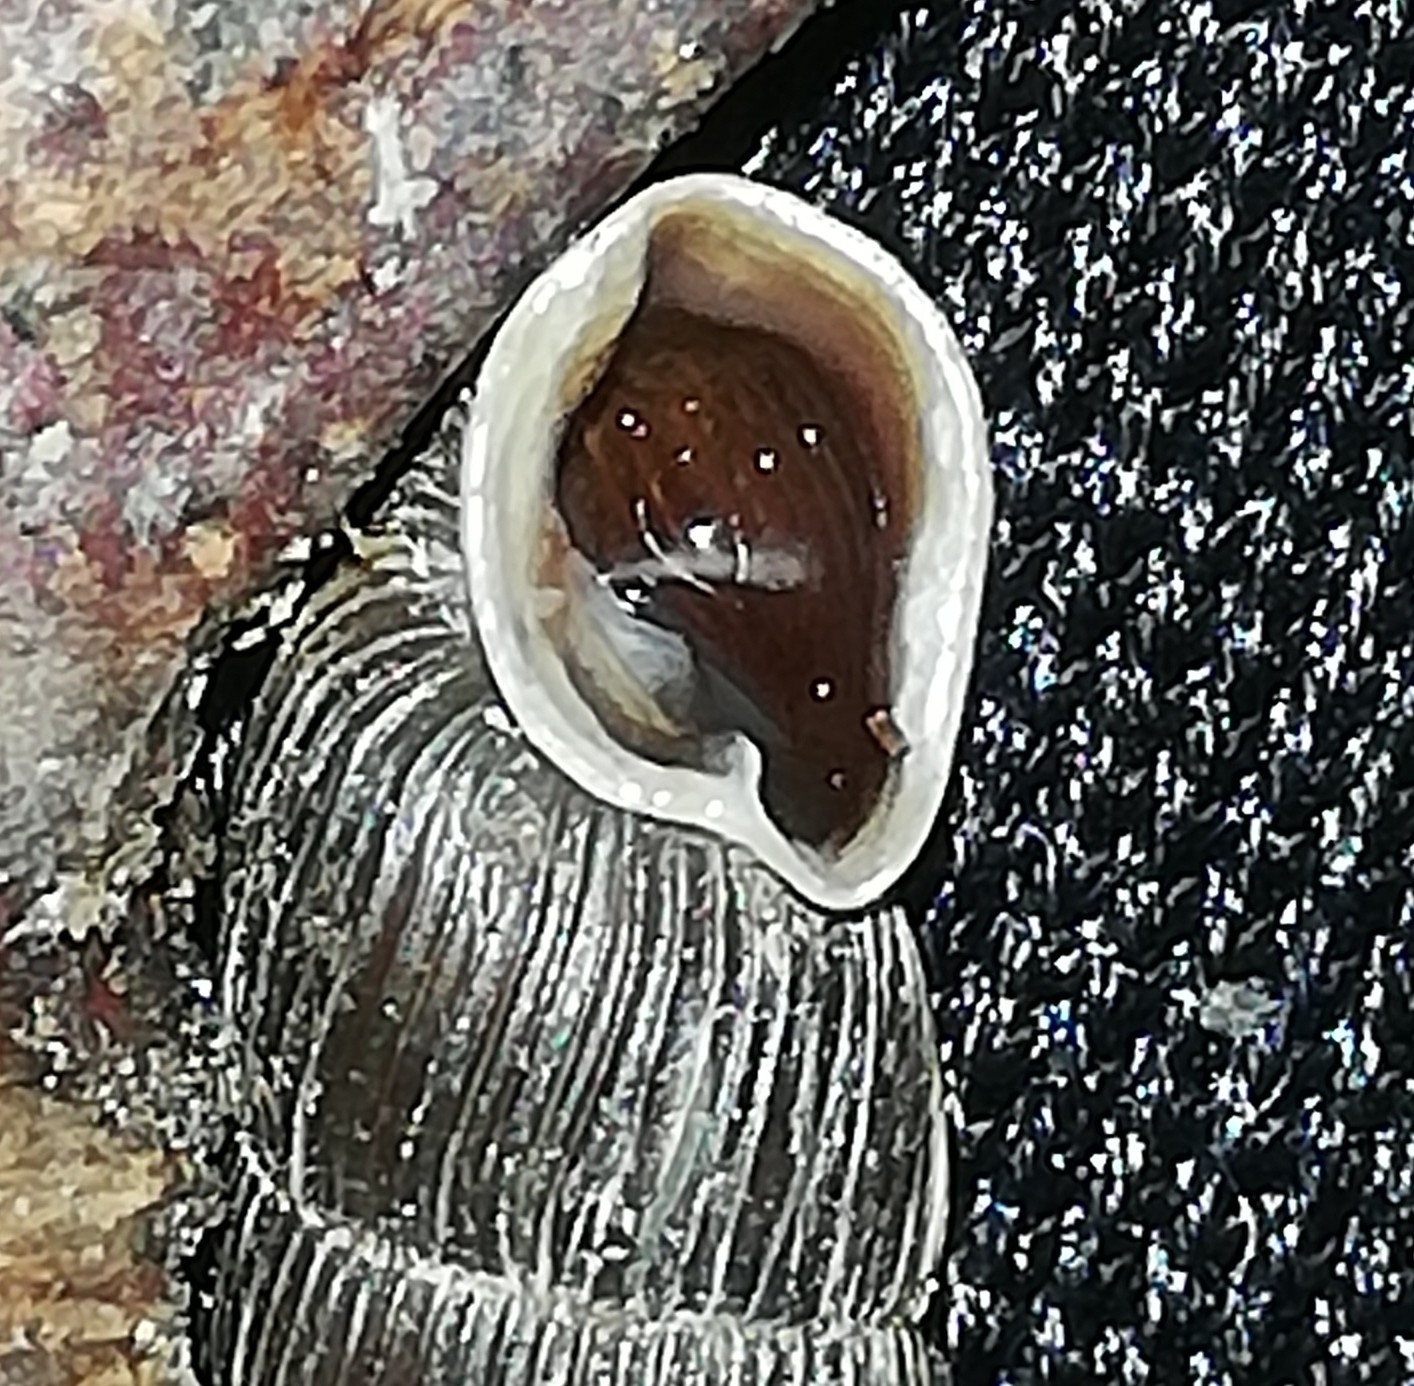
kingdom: Animalia
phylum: Mollusca
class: Gastropoda
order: Stylommatophora
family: Clausiliidae
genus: Alinda
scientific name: Alinda biplicata
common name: Thames door snail
